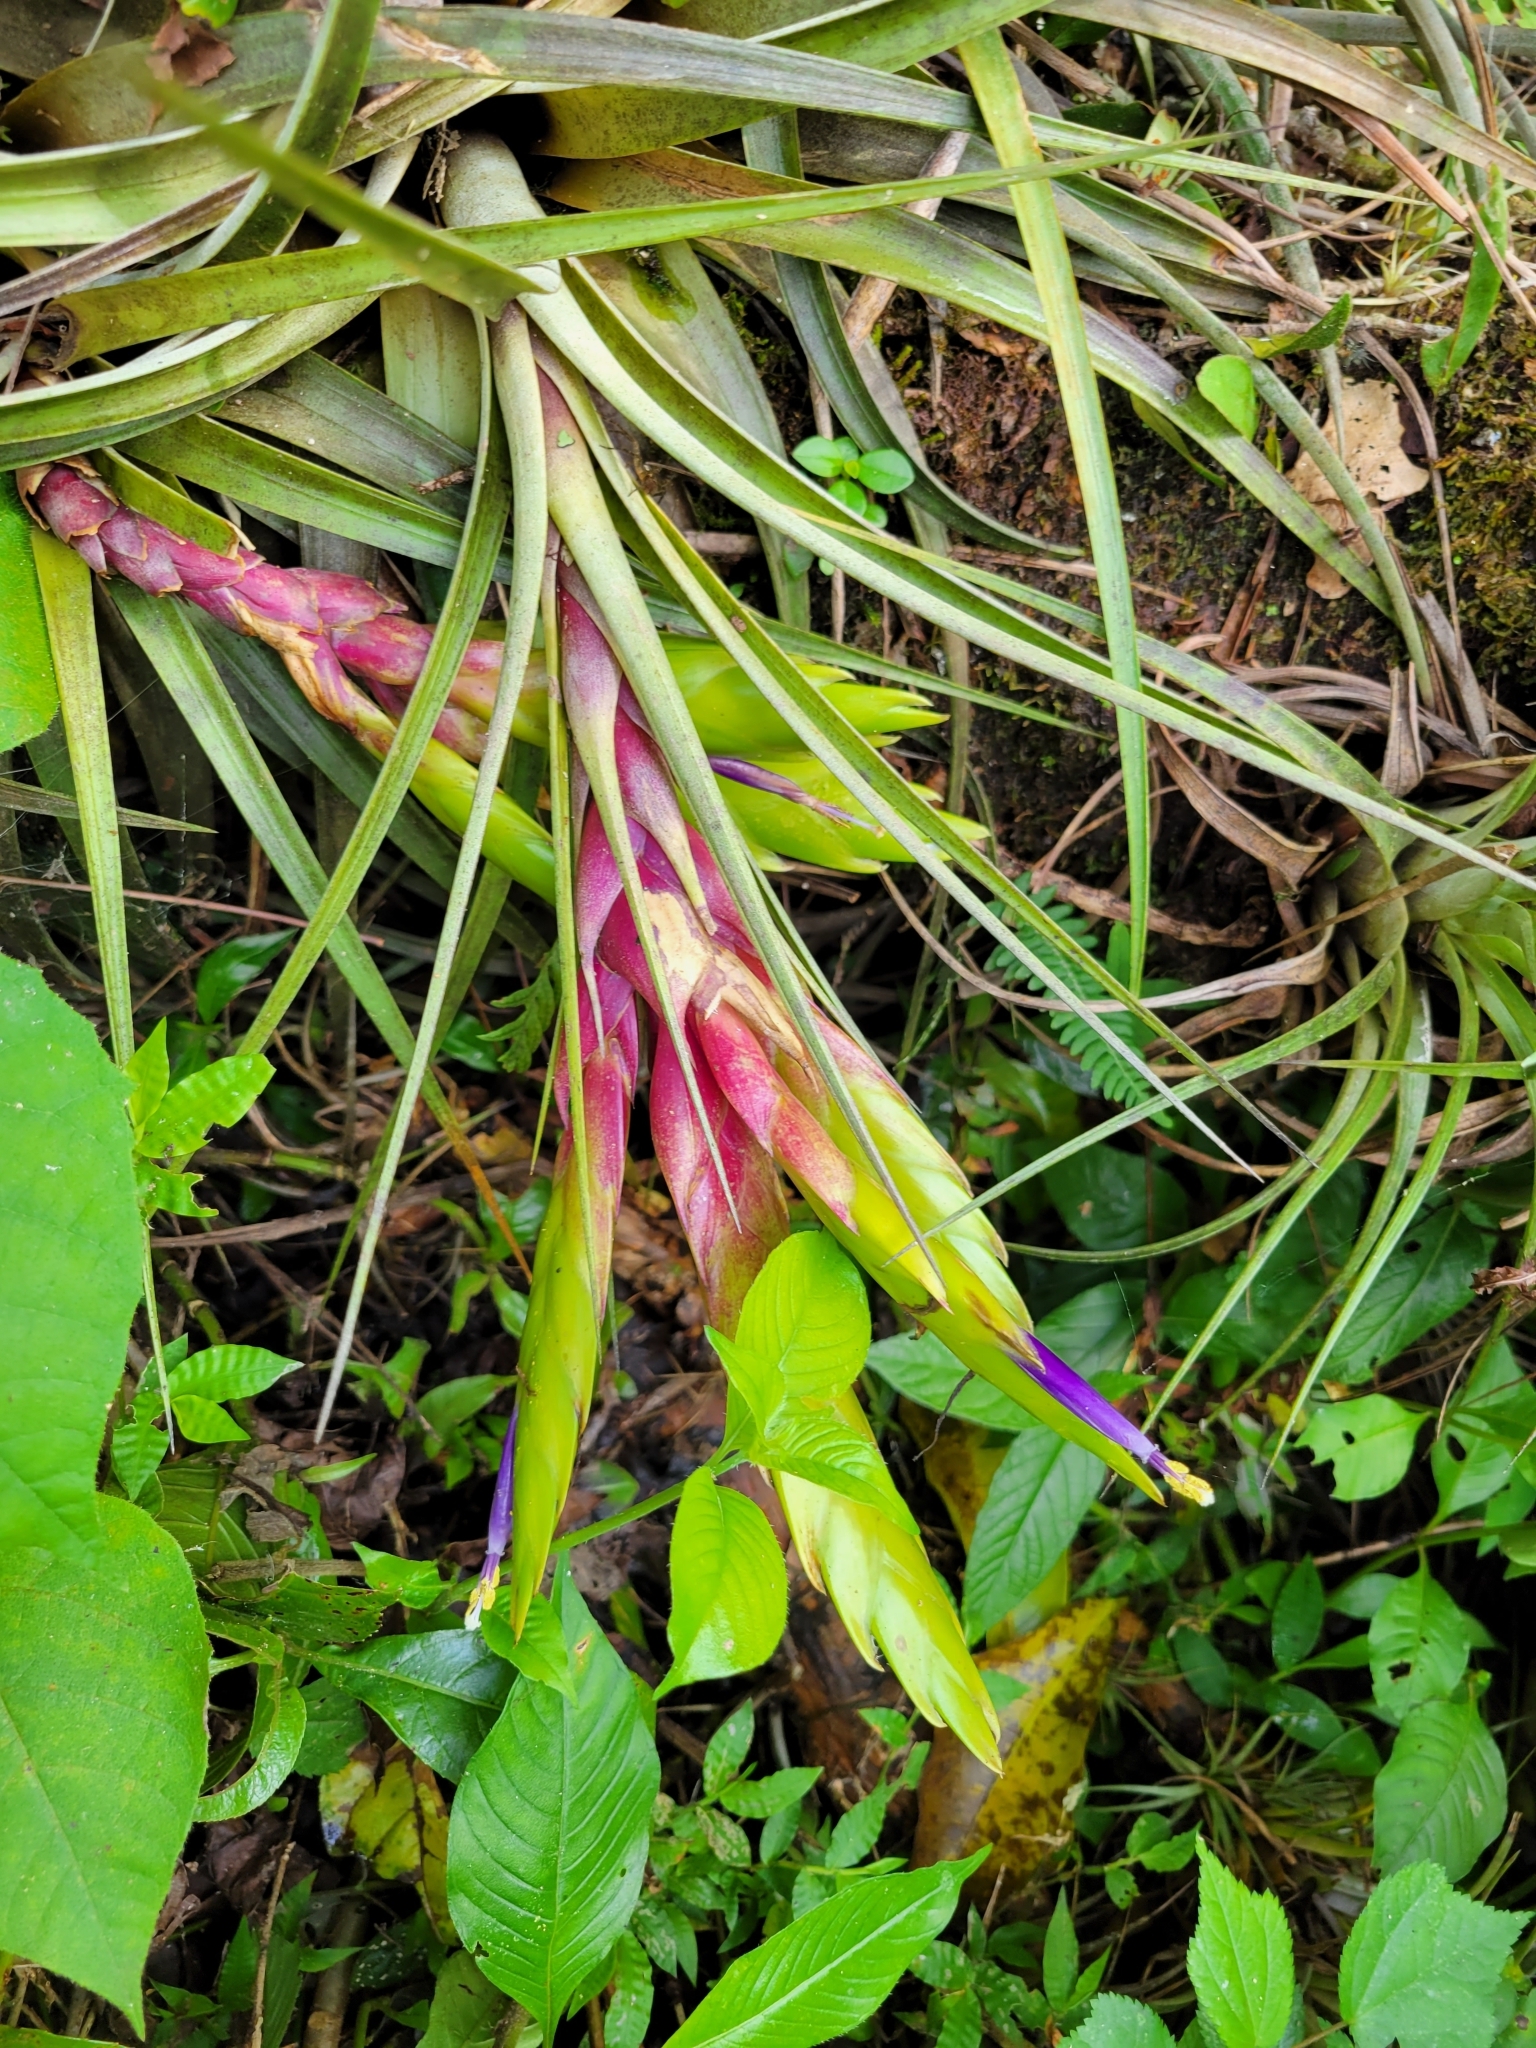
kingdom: Plantae
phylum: Tracheophyta
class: Liliopsida
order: Poales
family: Bromeliaceae
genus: Tillandsia
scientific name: Tillandsia fasciculata
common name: Giant airplant
